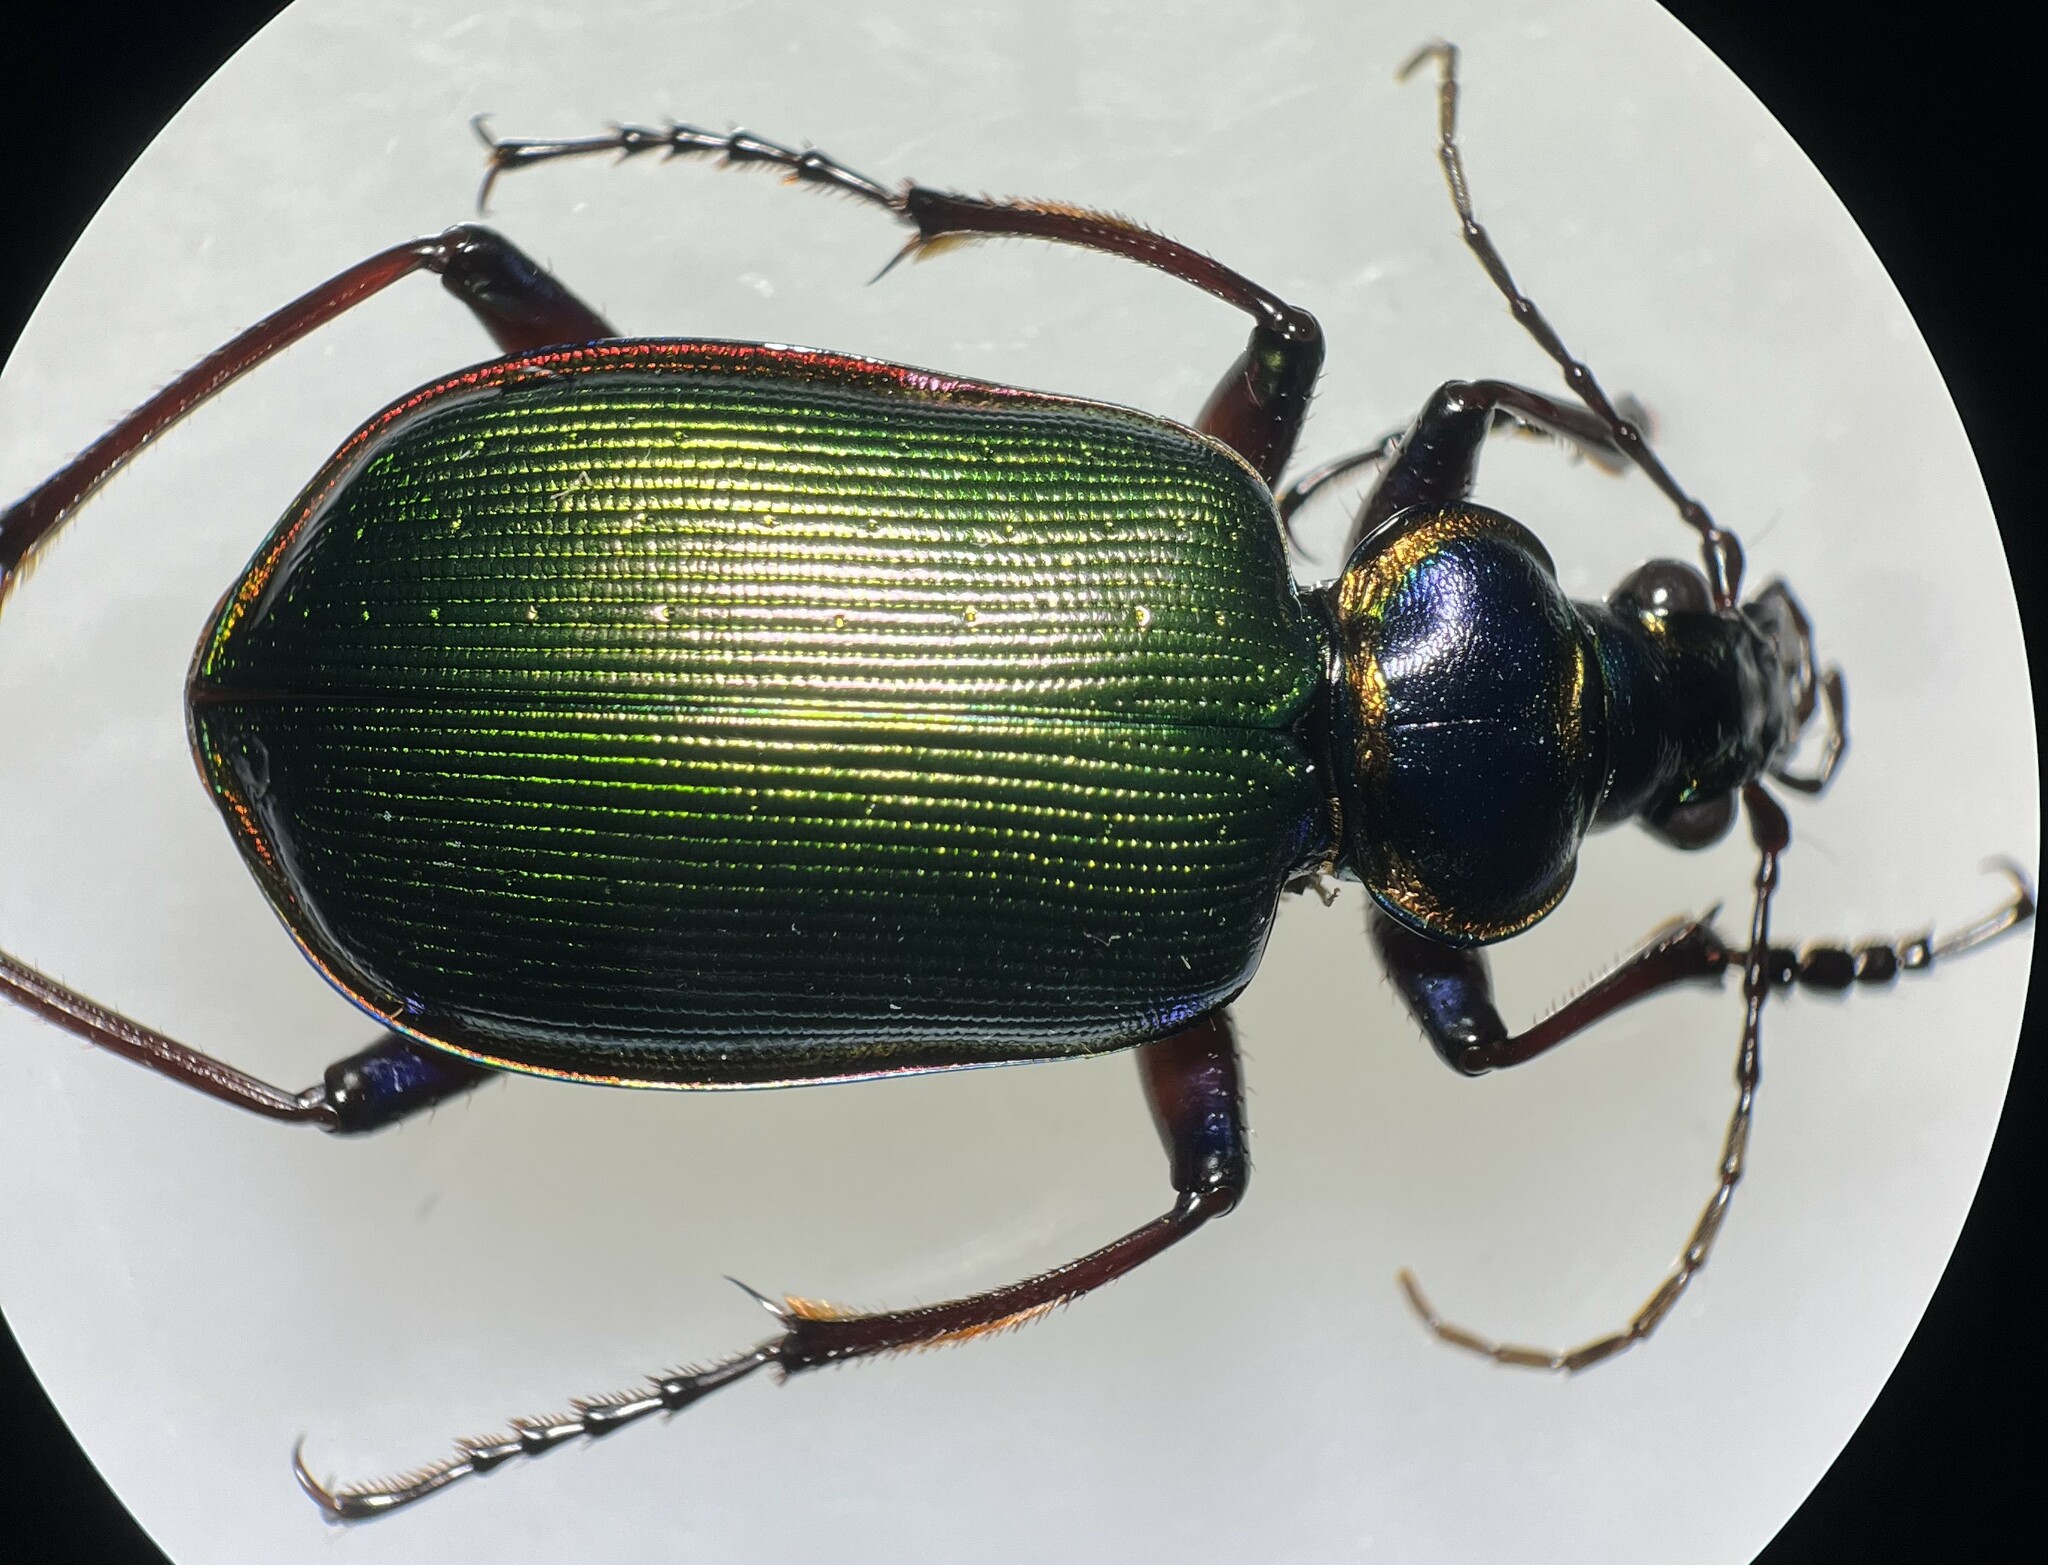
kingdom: Animalia
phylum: Arthropoda
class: Insecta
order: Coleoptera
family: Carabidae
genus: Calosoma
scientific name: Calosoma scrutator
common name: Fiery searcher beetle
